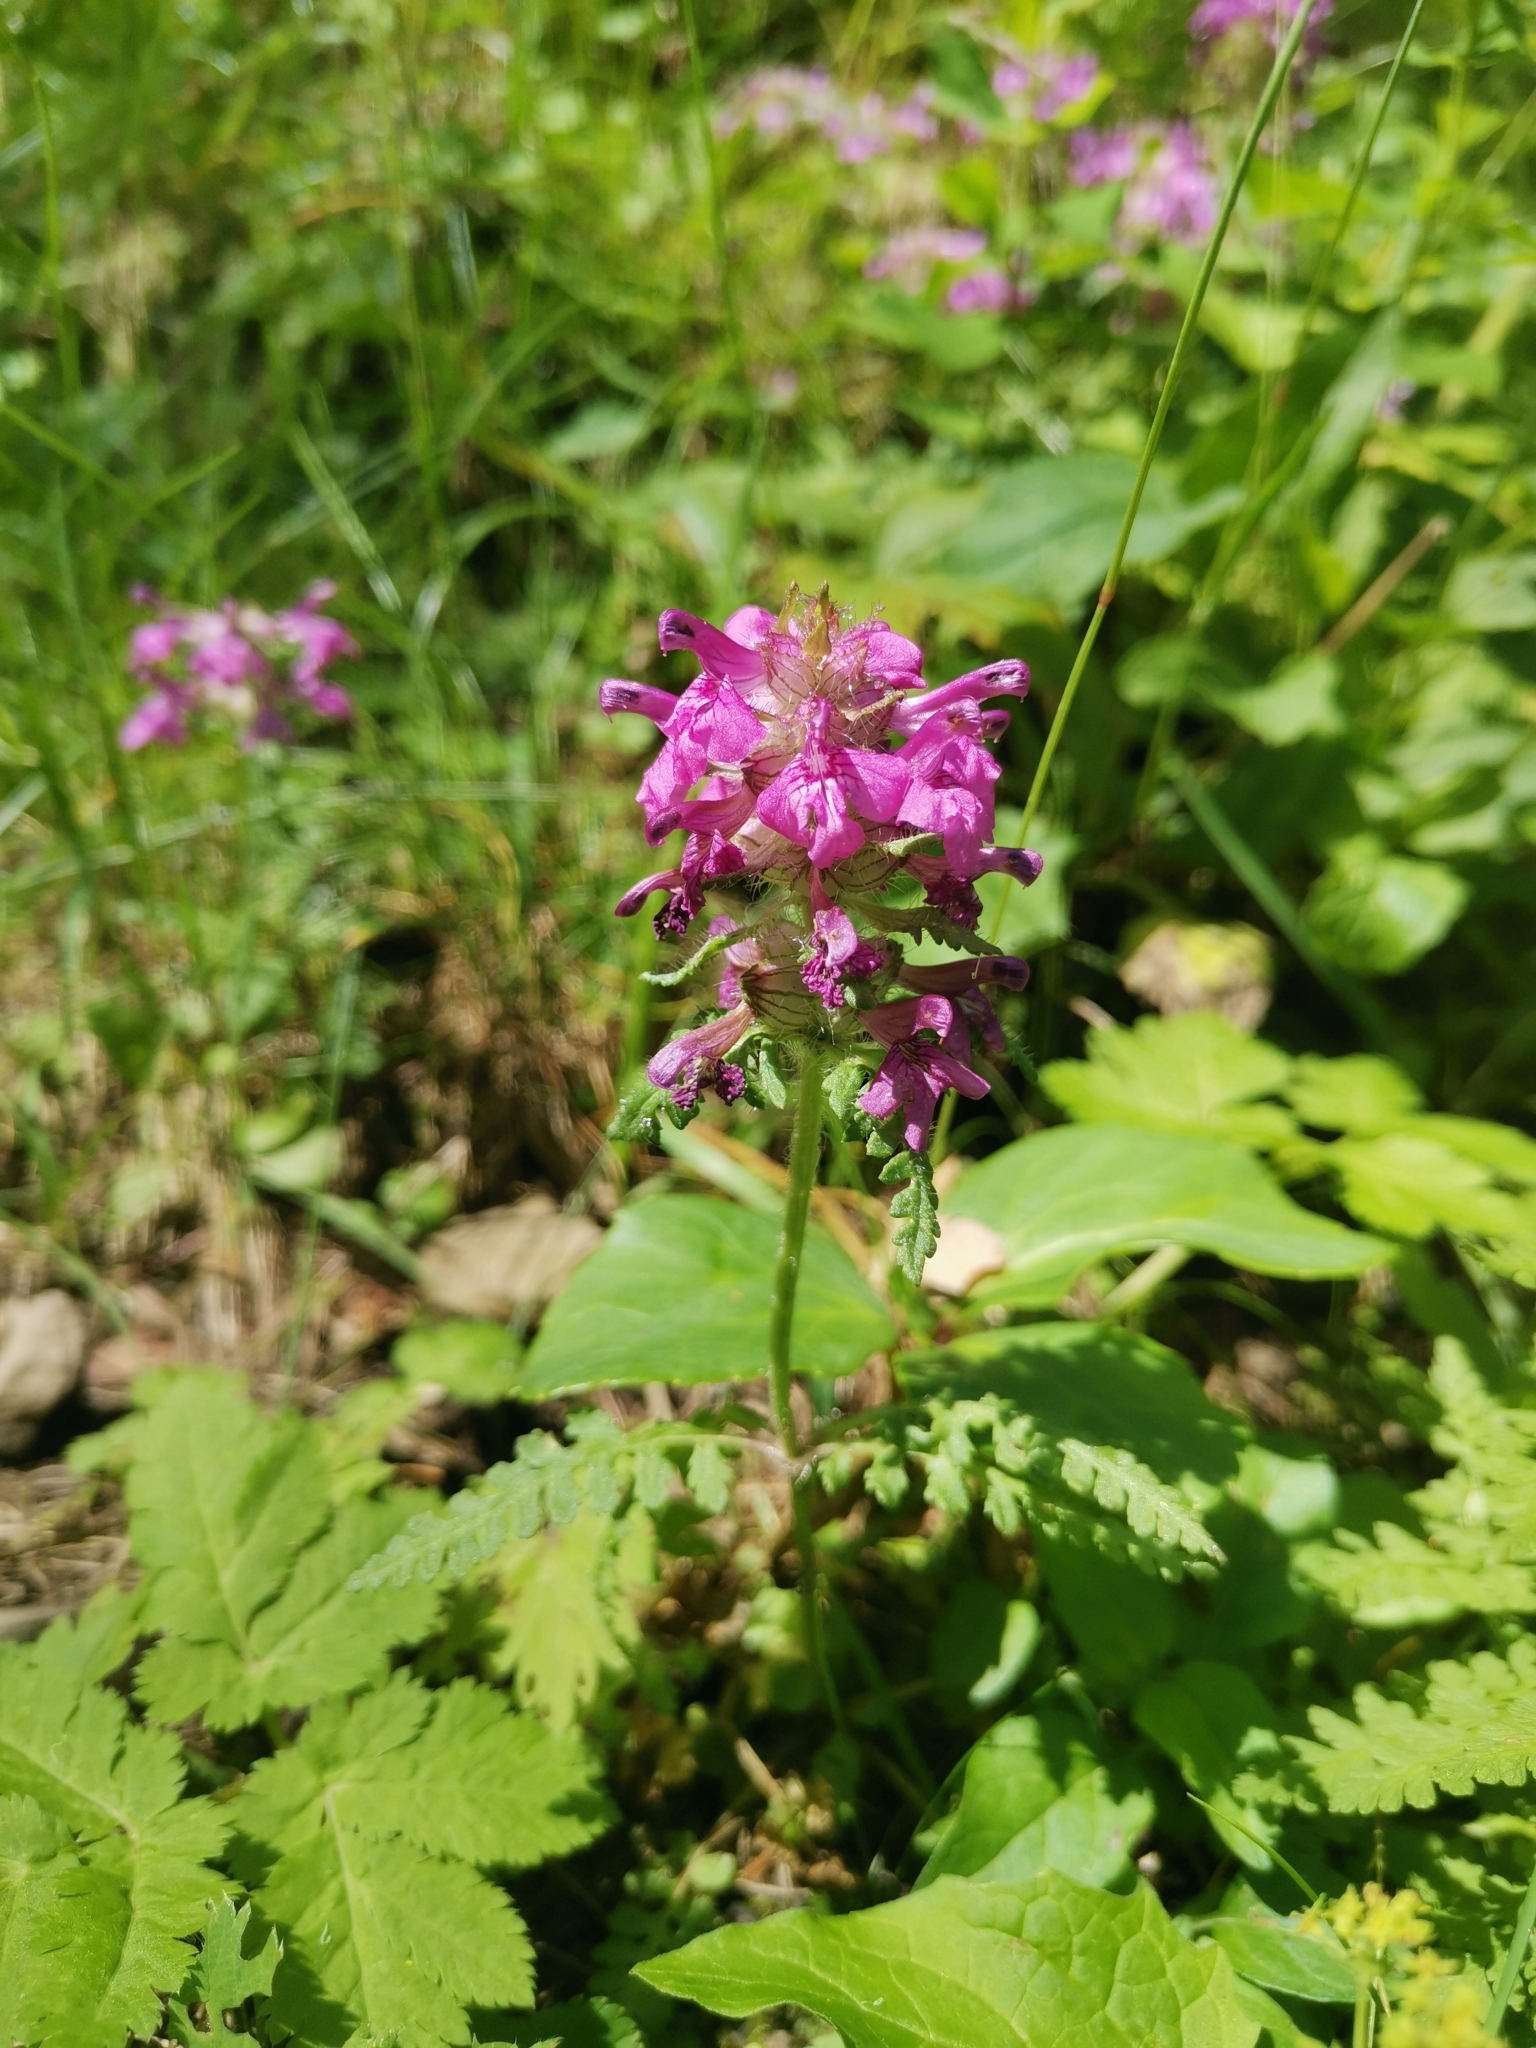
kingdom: Plantae
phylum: Tracheophyta
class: Magnoliopsida
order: Lamiales
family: Orobanchaceae
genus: Pedicularis
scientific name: Pedicularis verticillata
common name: Whorled lousewort
